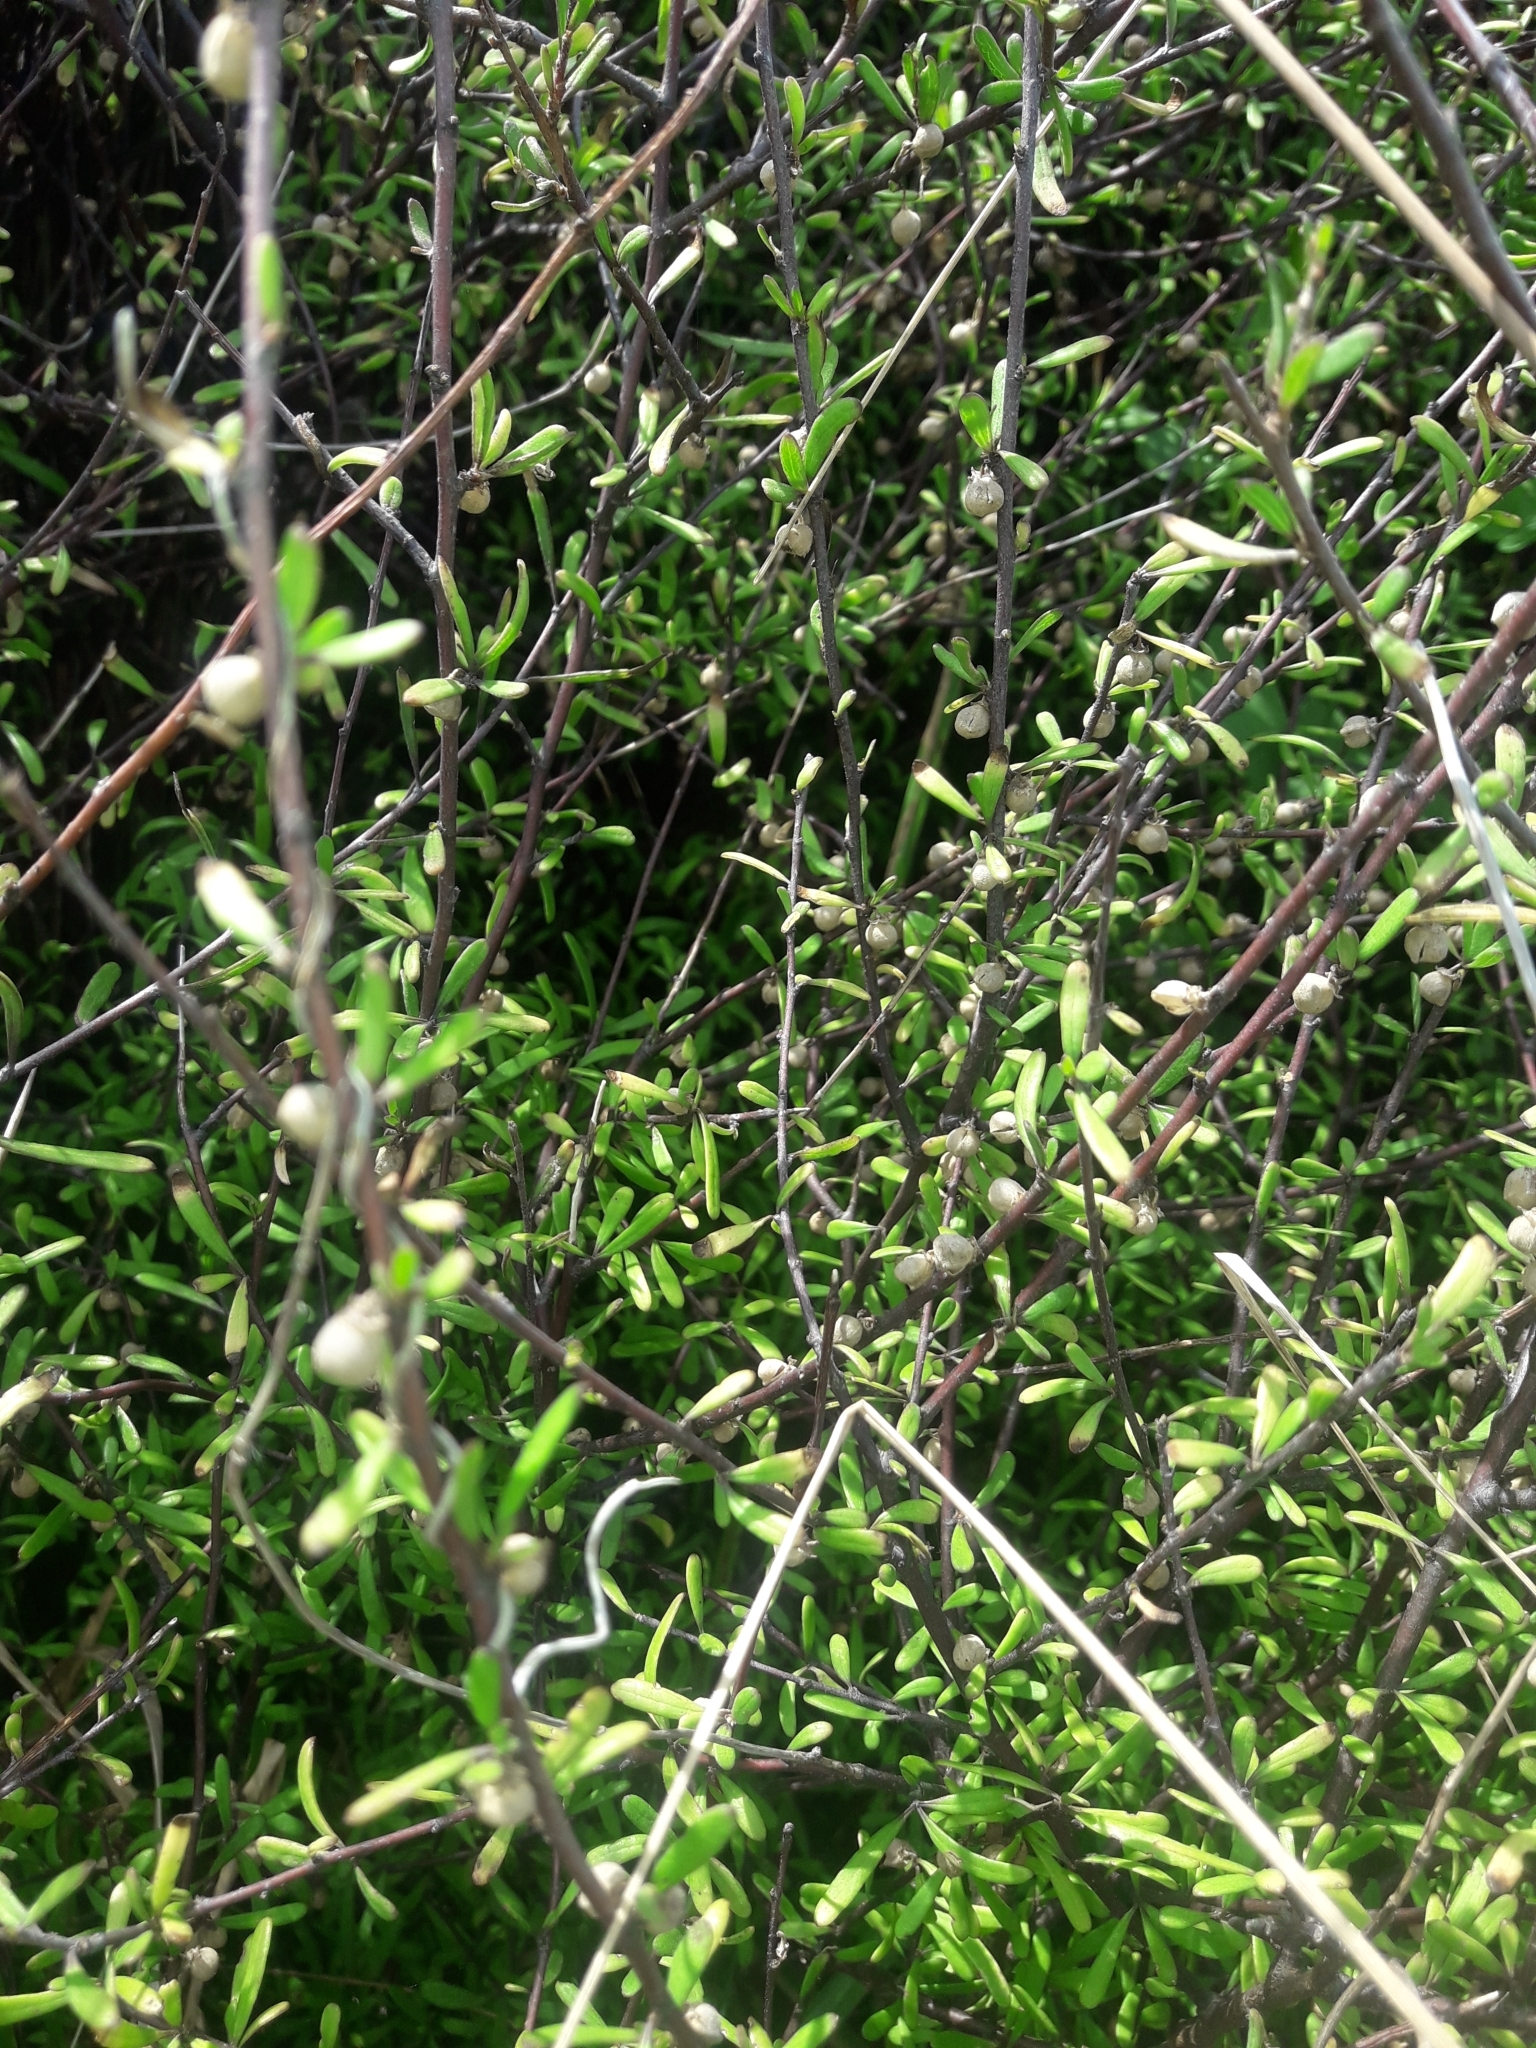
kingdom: Plantae
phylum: Tracheophyta
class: Magnoliopsida
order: Malvales
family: Malvaceae
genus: Plagianthus
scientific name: Plagianthus divaricatus
